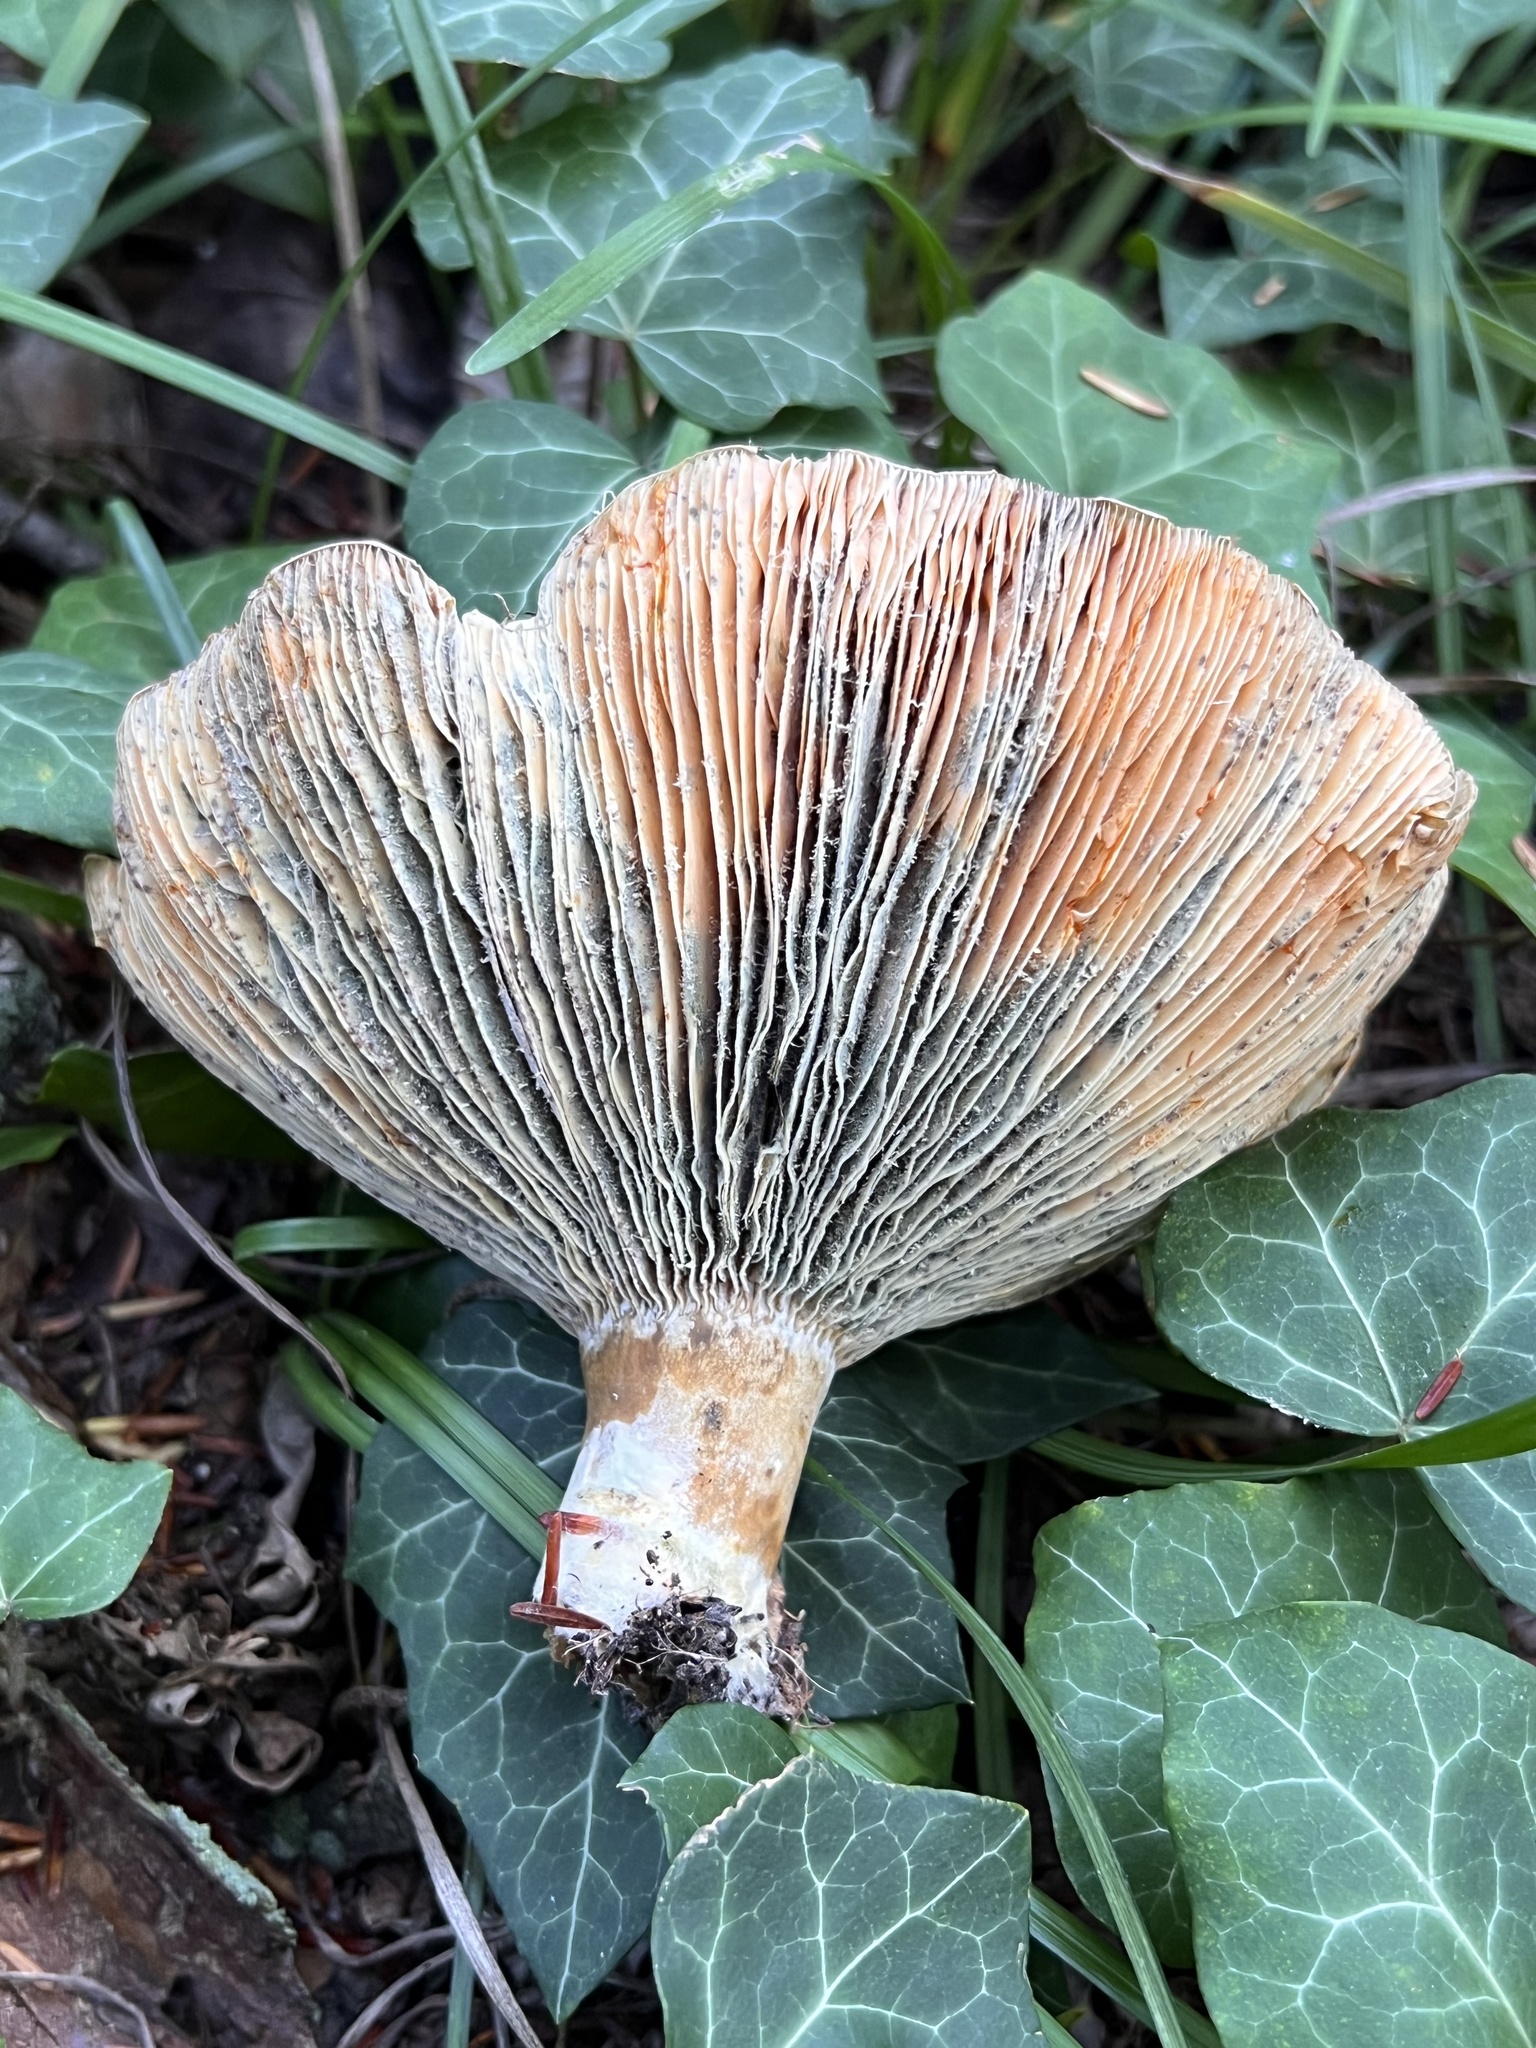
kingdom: Fungi
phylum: Basidiomycota
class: Agaricomycetes
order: Russulales
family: Russulaceae
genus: Lactarius
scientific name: Lactarius chelidonium
